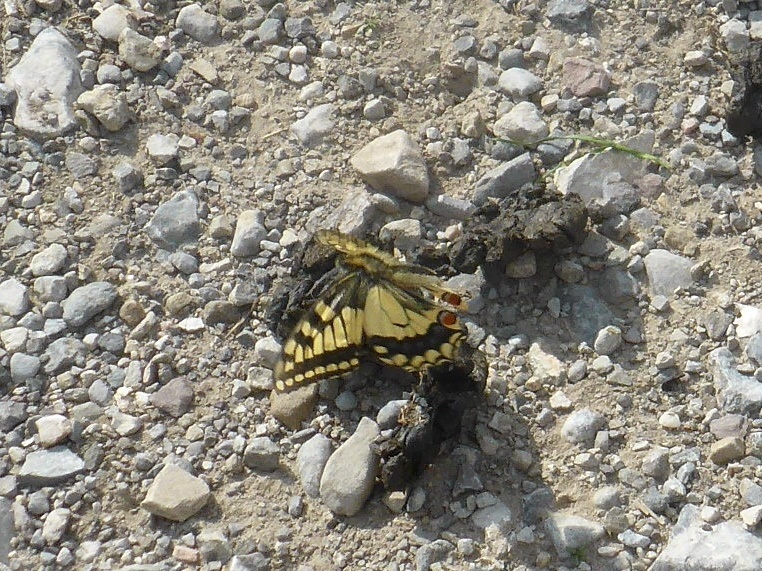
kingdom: Animalia
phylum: Arthropoda
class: Insecta
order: Lepidoptera
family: Papilionidae
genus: Papilio
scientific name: Papilio machaon
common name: Swallowtail
